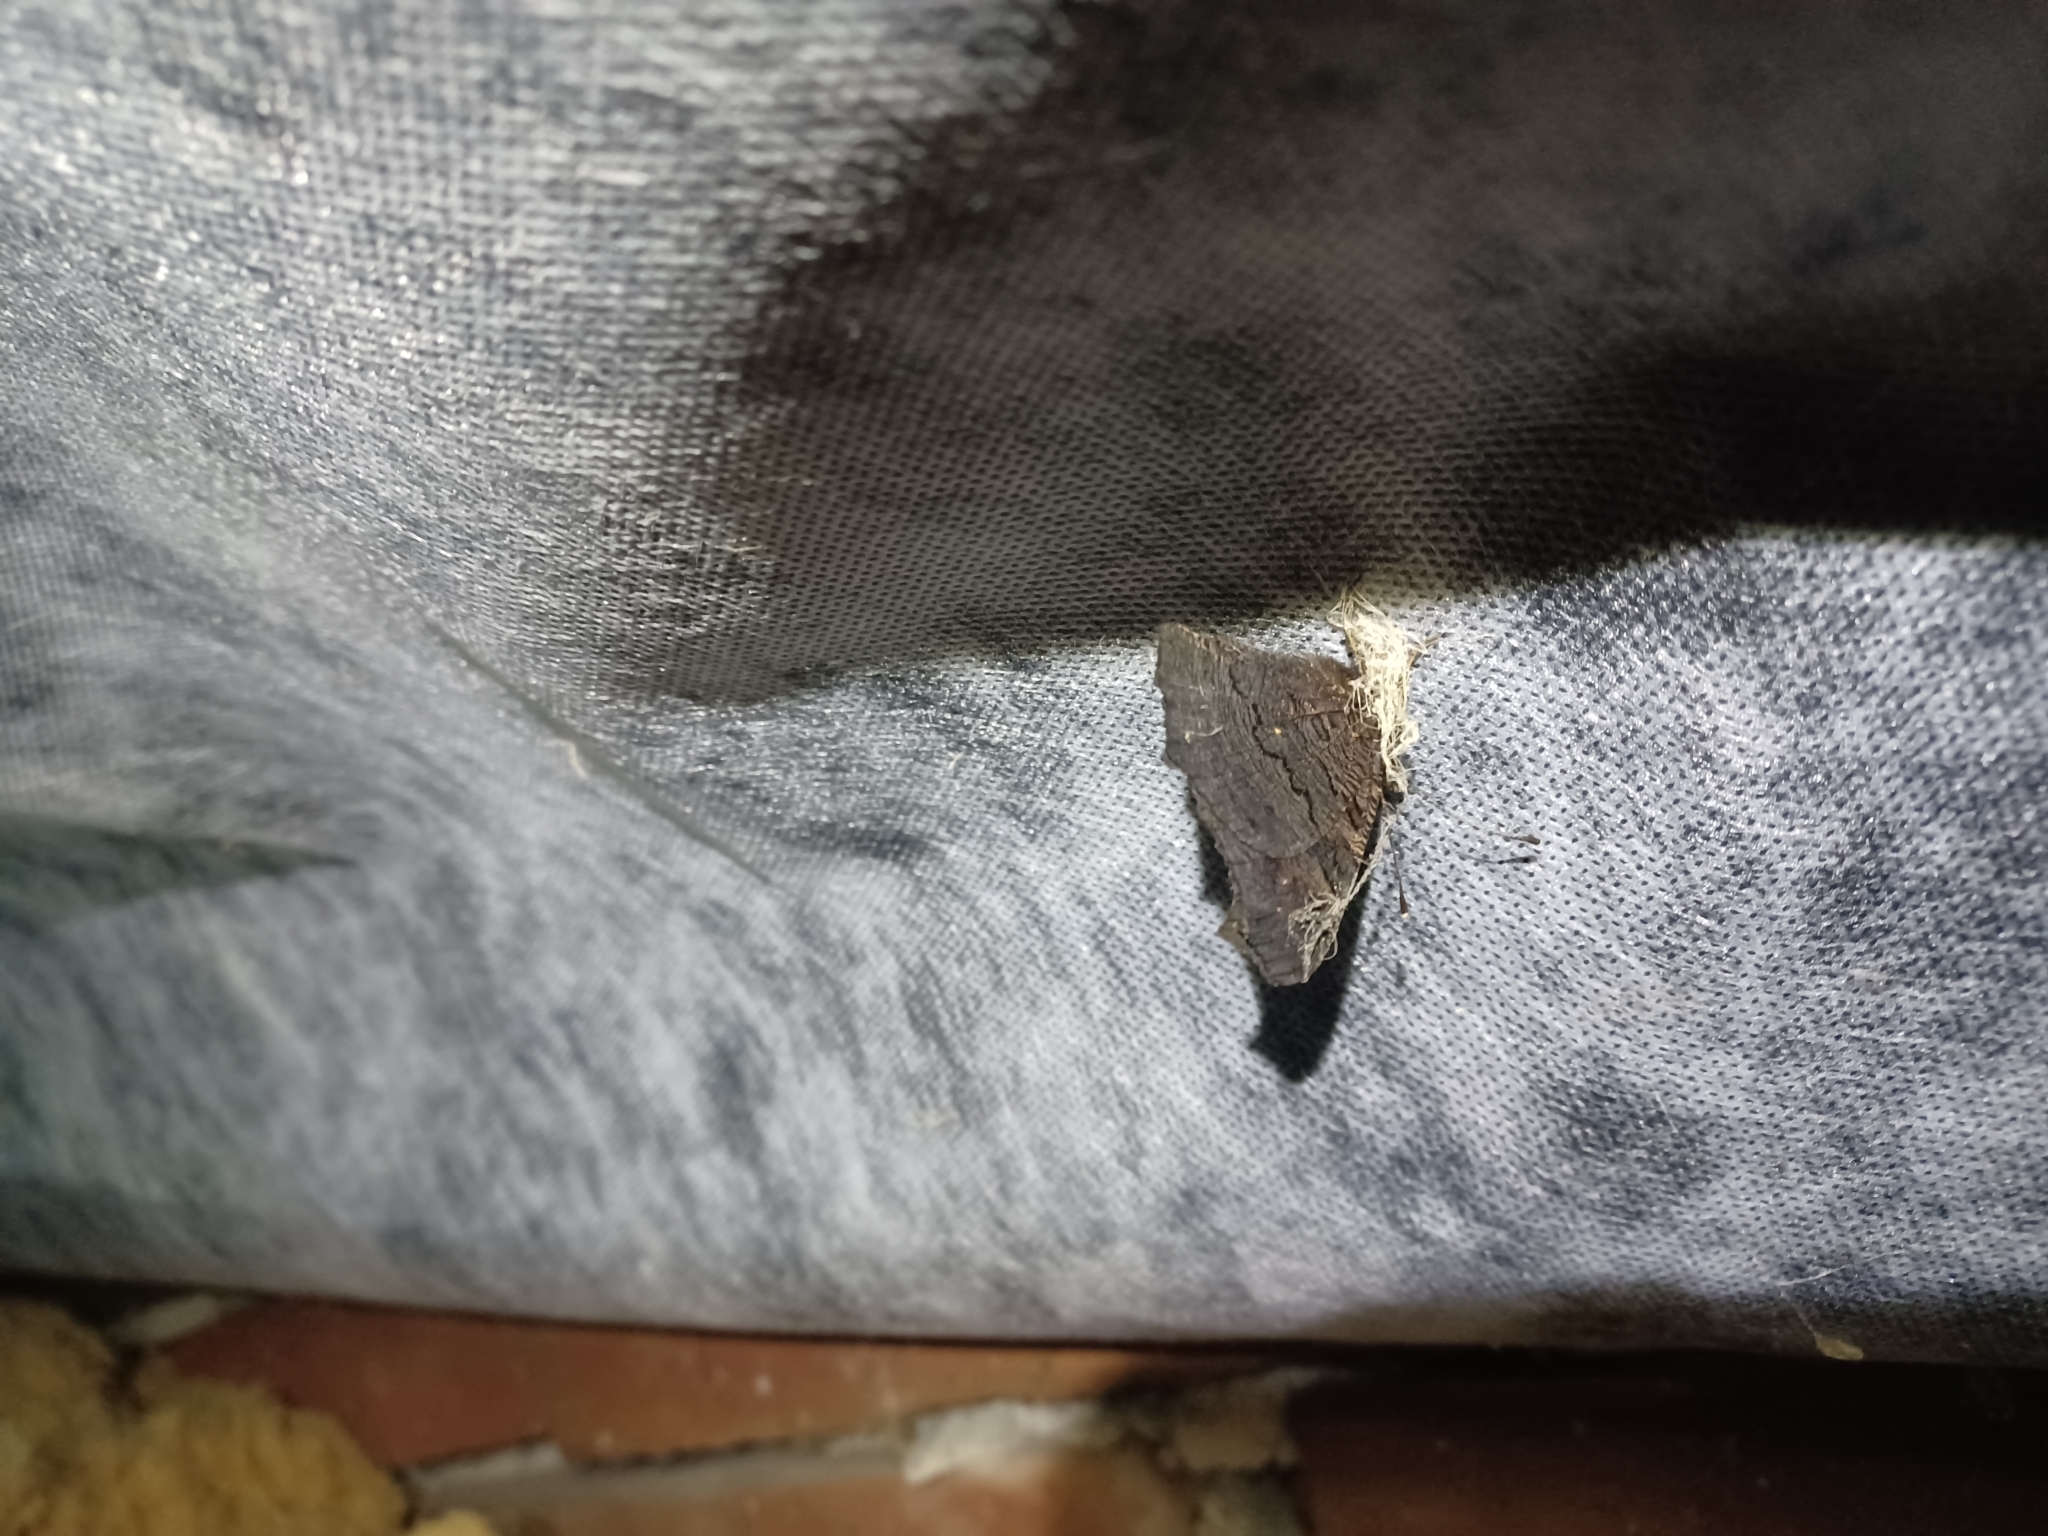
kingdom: Animalia
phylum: Arthropoda
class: Insecta
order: Lepidoptera
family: Nymphalidae
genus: Aglais
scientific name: Aglais io
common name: Peacock
